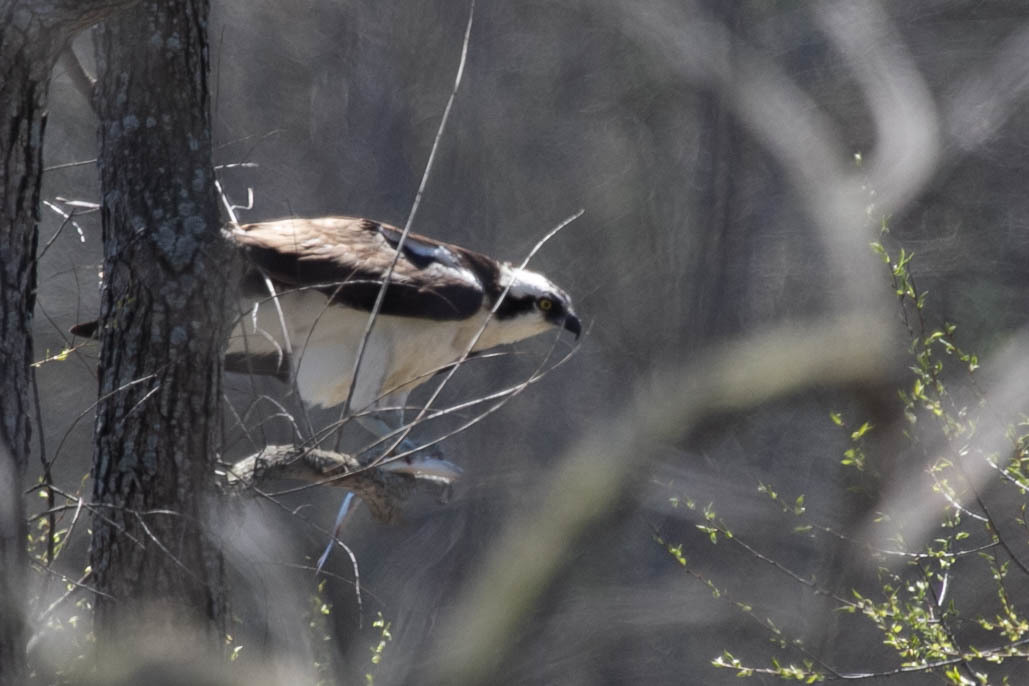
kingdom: Animalia
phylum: Chordata
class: Aves
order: Accipitriformes
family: Pandionidae
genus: Pandion
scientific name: Pandion haliaetus
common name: Osprey
